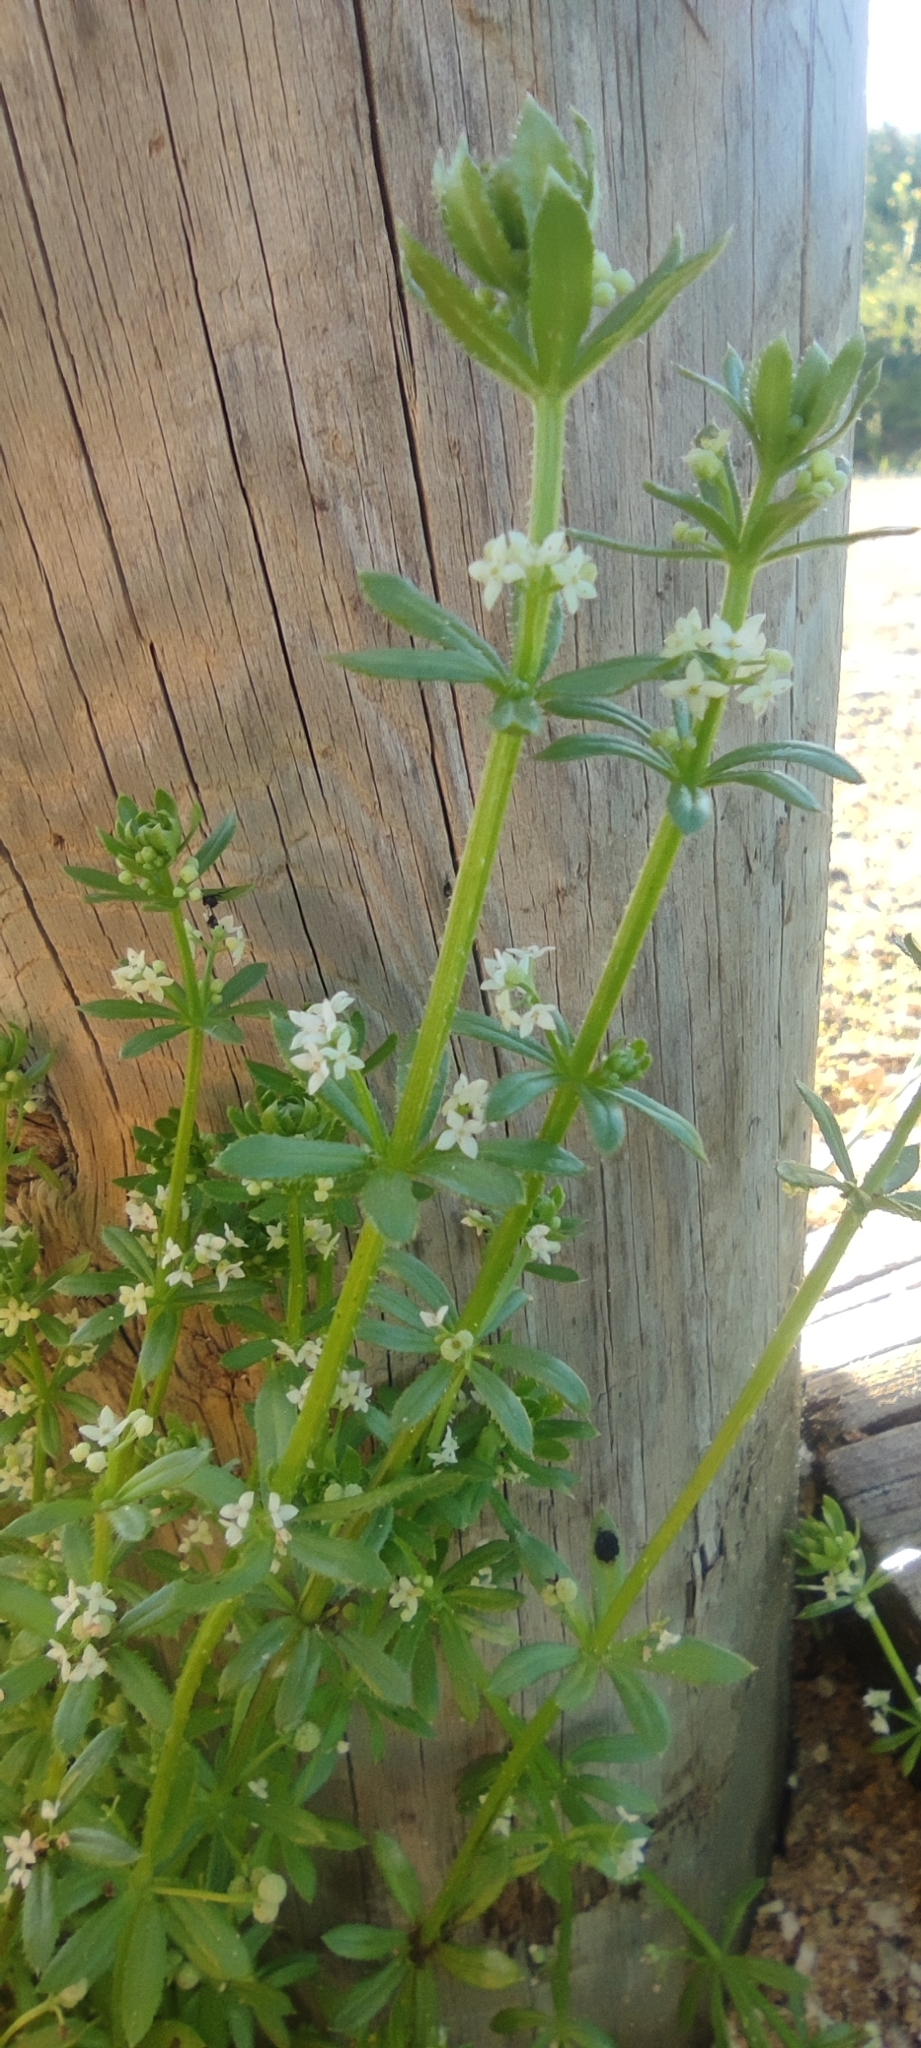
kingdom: Plantae
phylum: Tracheophyta
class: Magnoliopsida
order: Gentianales
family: Rubiaceae
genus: Galium
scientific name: Galium verrucosum
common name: Warty bedstraw
